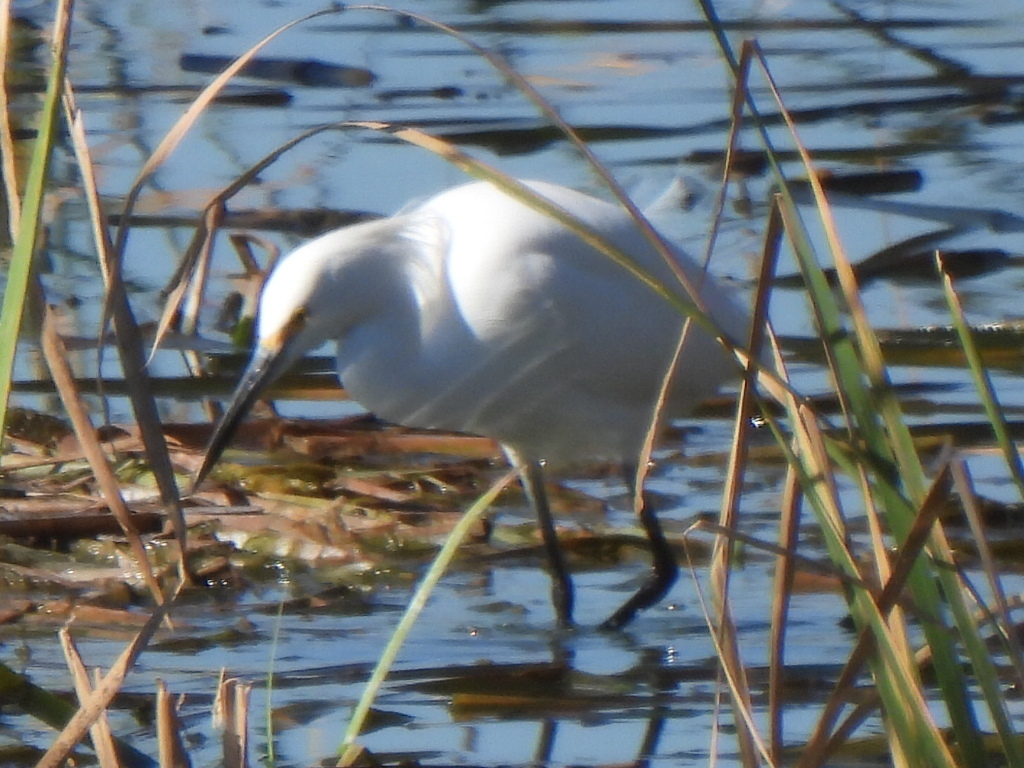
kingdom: Animalia
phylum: Chordata
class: Aves
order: Pelecaniformes
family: Ardeidae
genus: Egretta
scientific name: Egretta thula
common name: Snowy egret
